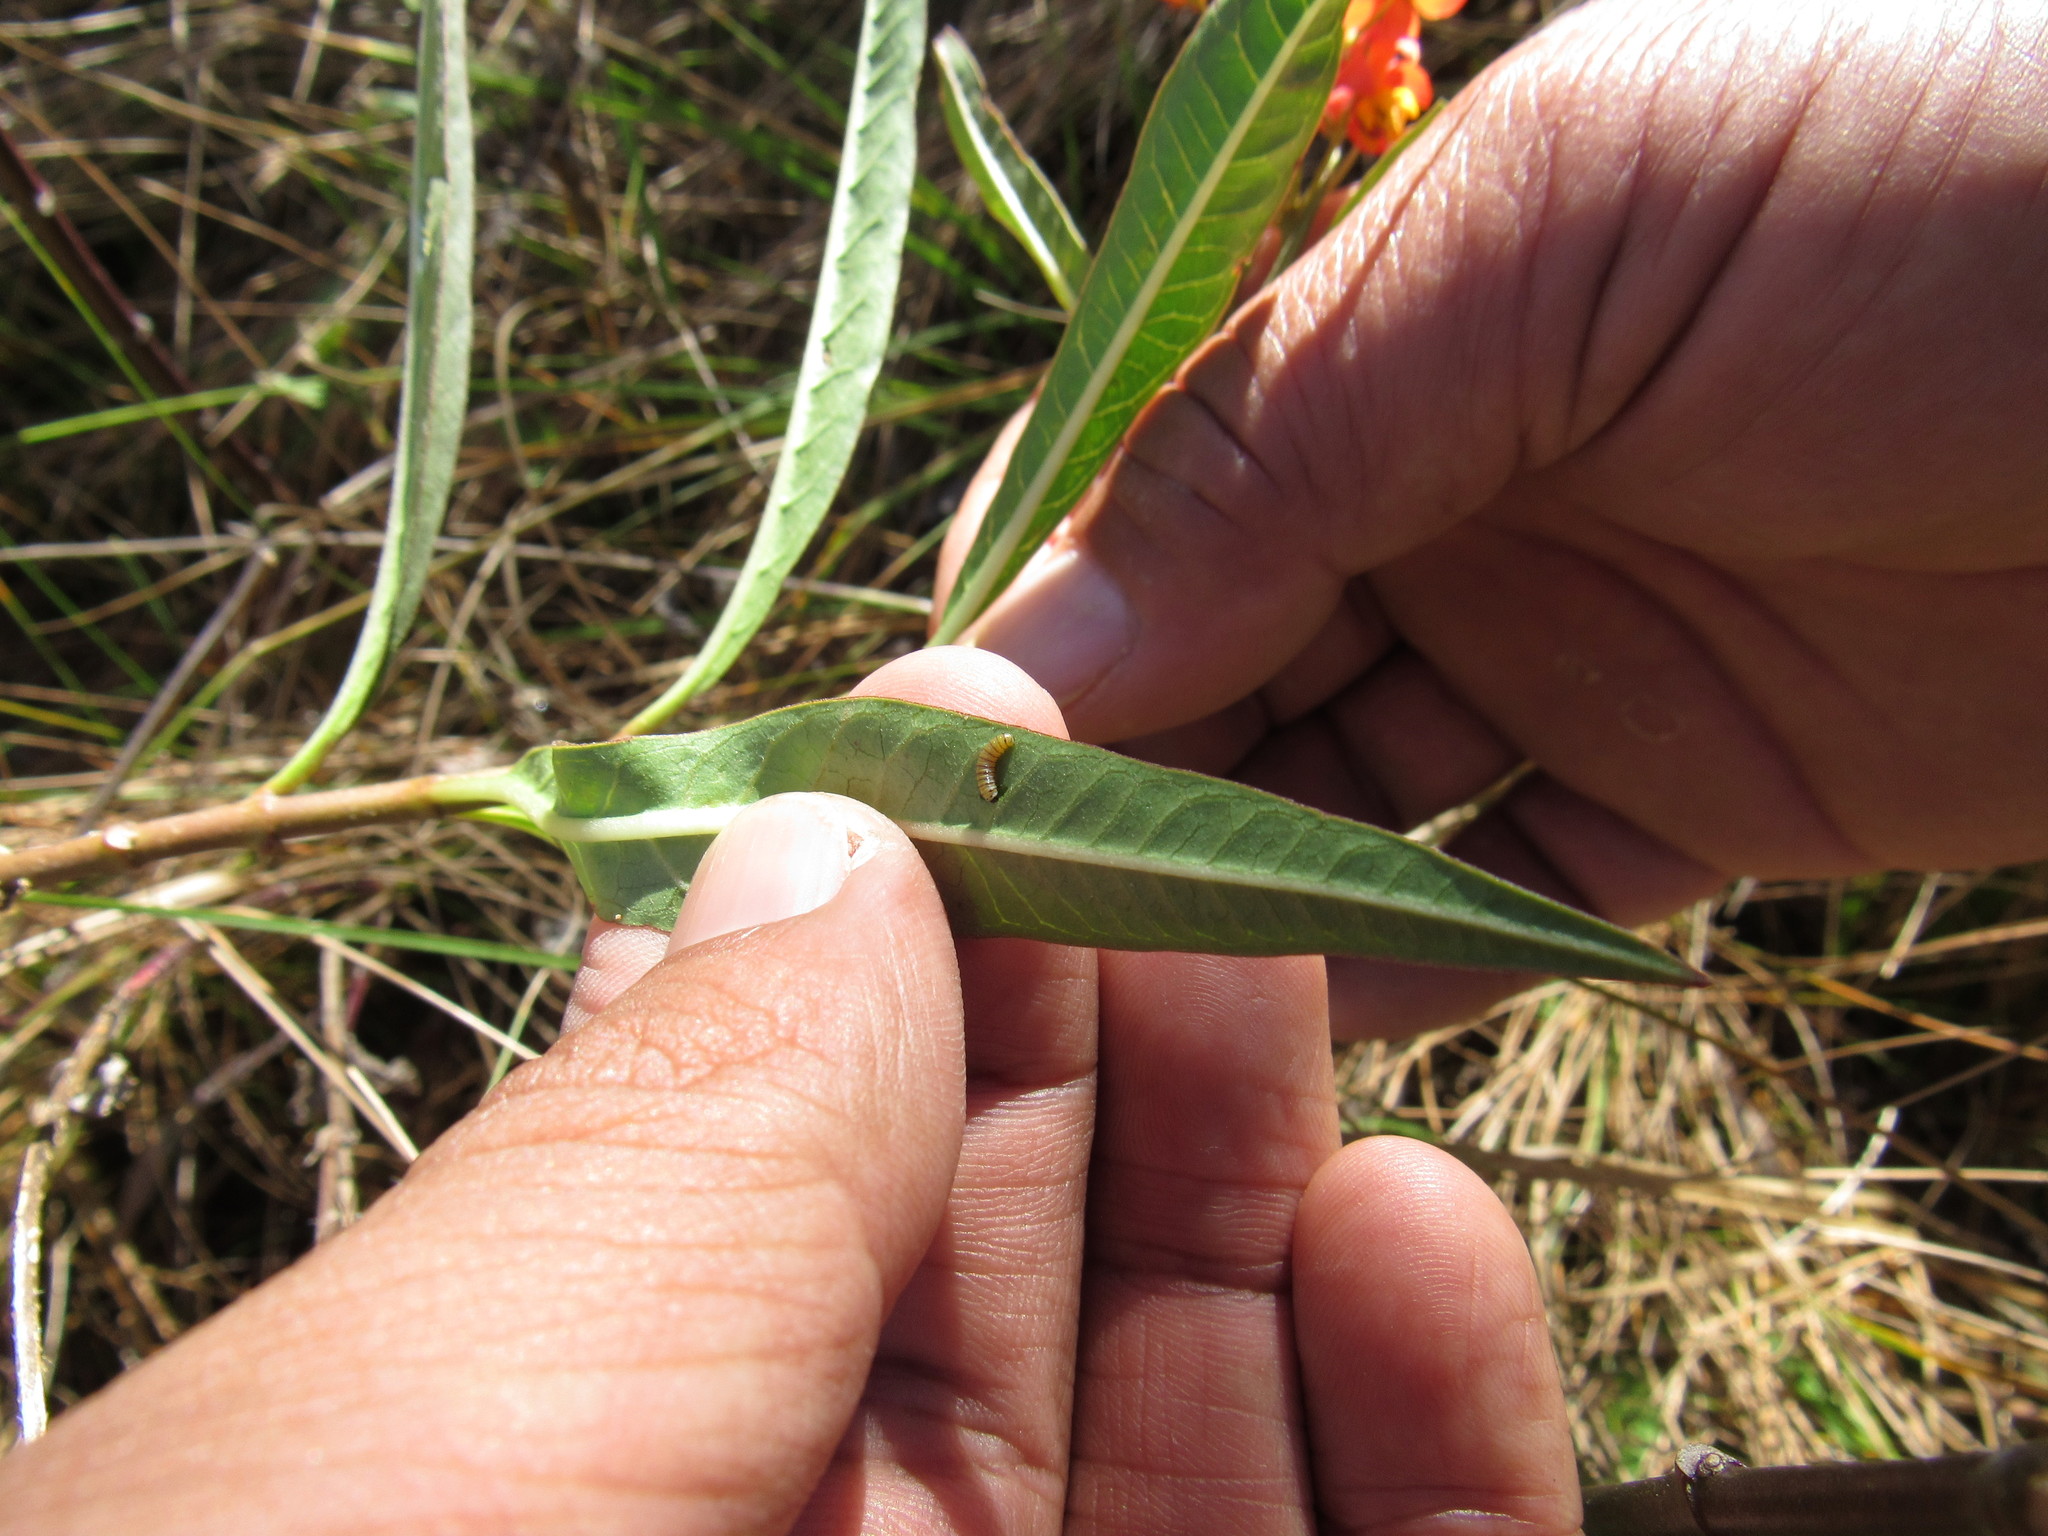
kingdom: Animalia
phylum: Arthropoda
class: Insecta
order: Lepidoptera
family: Nymphalidae
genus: Danaus
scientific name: Danaus plexippus
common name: Monarch
